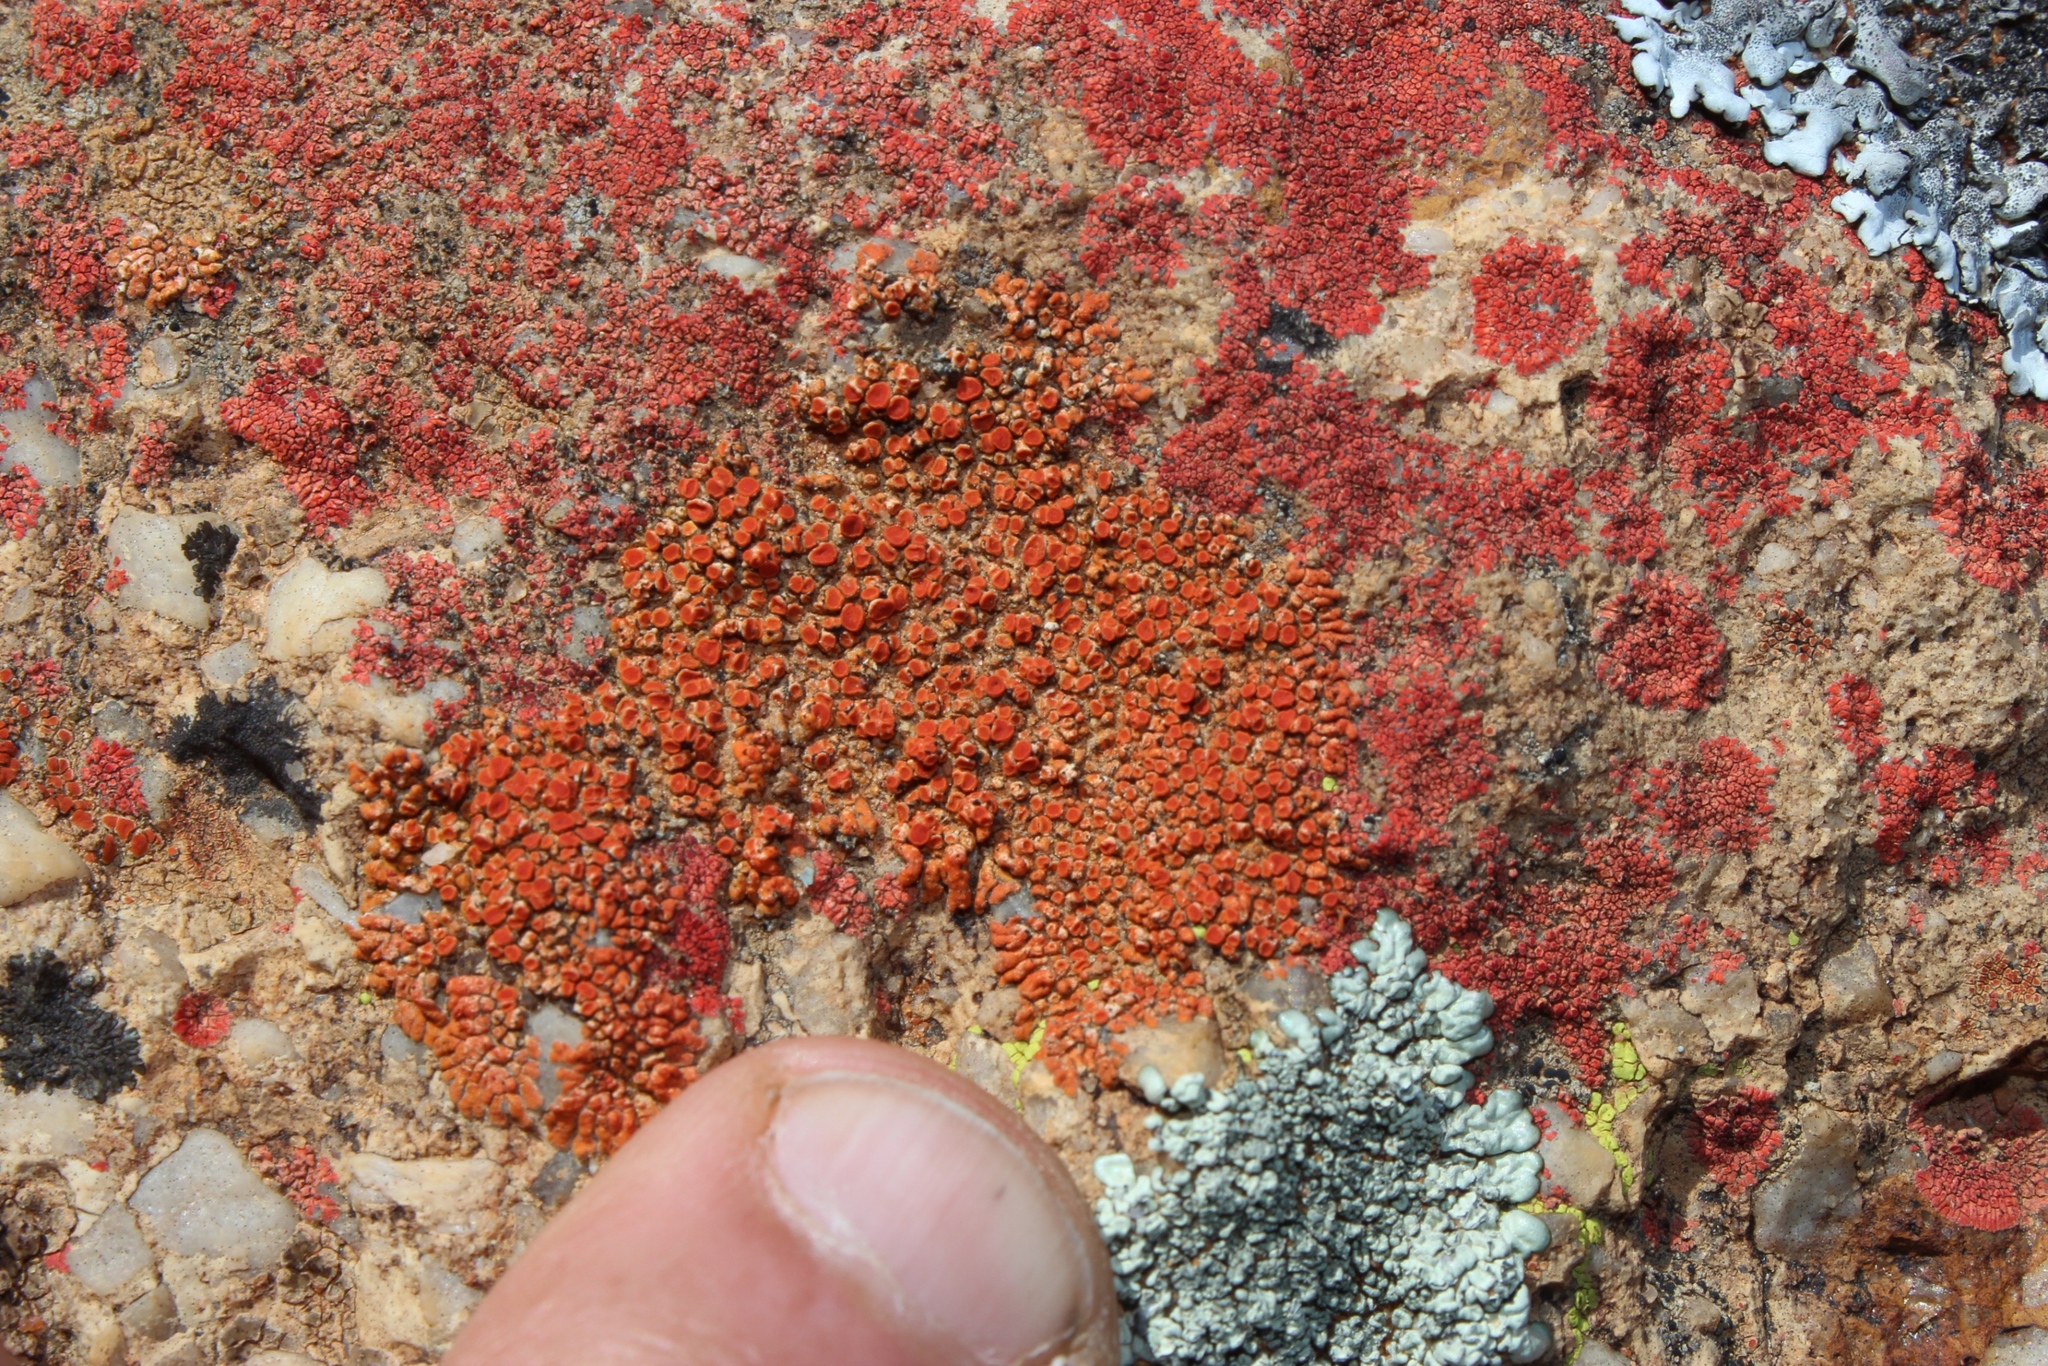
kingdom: Fungi
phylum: Ascomycota
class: Lecanoromycetes
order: Teloschistales
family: Teloschistaceae
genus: Xanthoria
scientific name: Xanthoria elegans
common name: Elegant sunburst lichen
